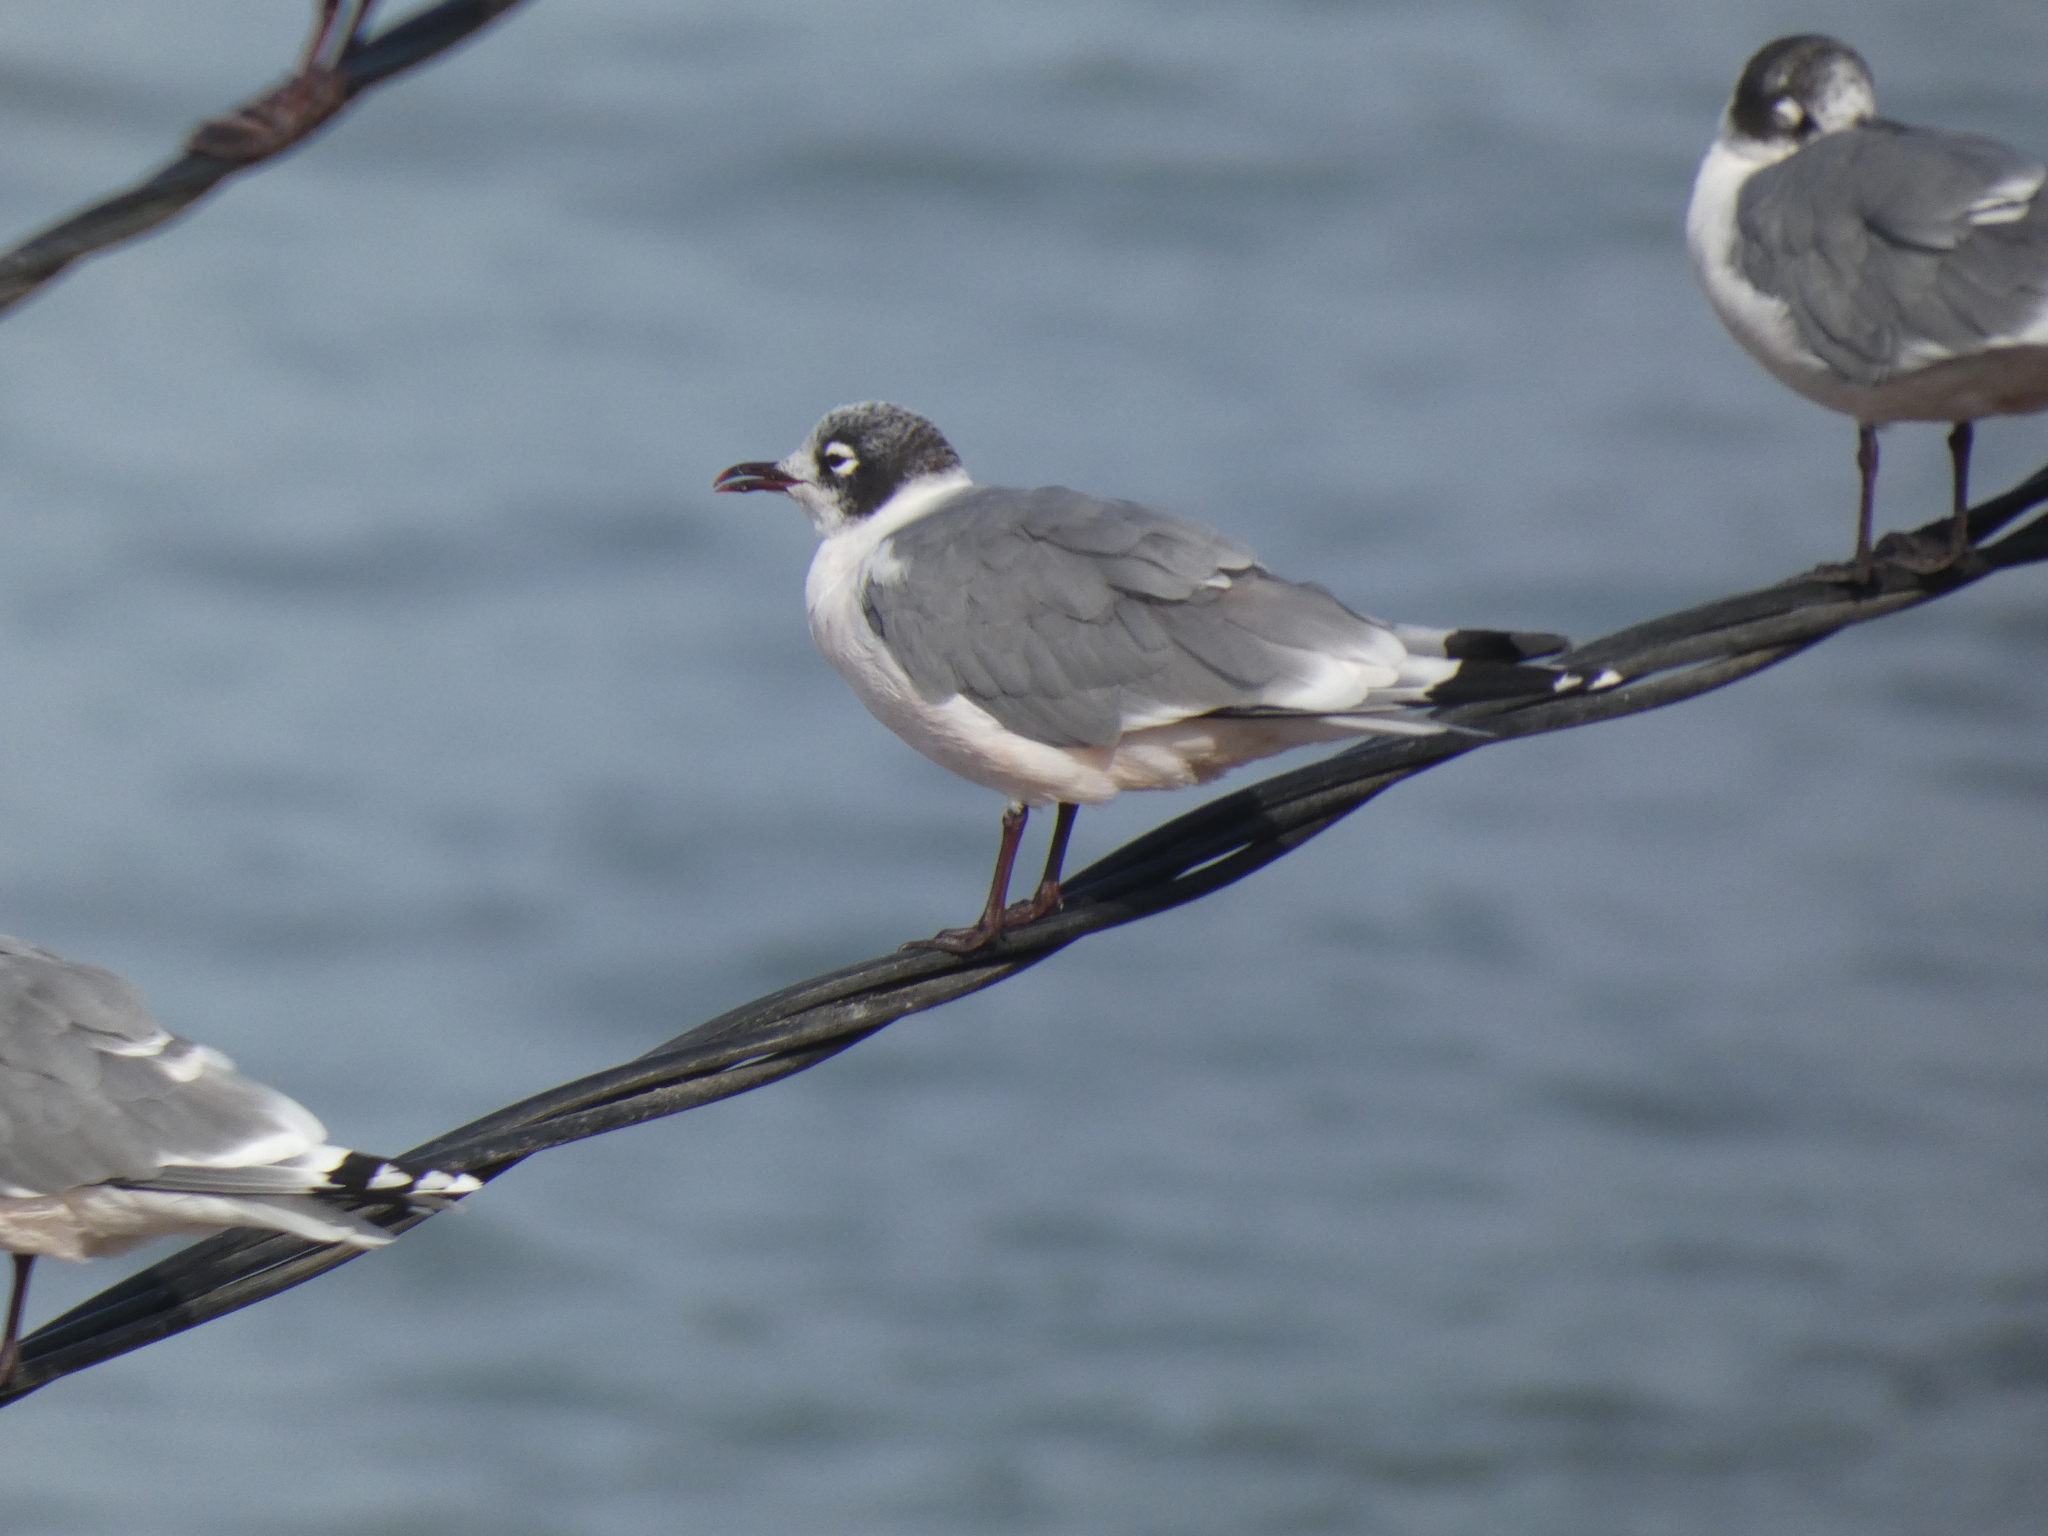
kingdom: Animalia
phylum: Chordata
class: Aves
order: Charadriiformes
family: Laridae
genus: Leucophaeus
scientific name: Leucophaeus pipixcan
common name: Franklin's gull
